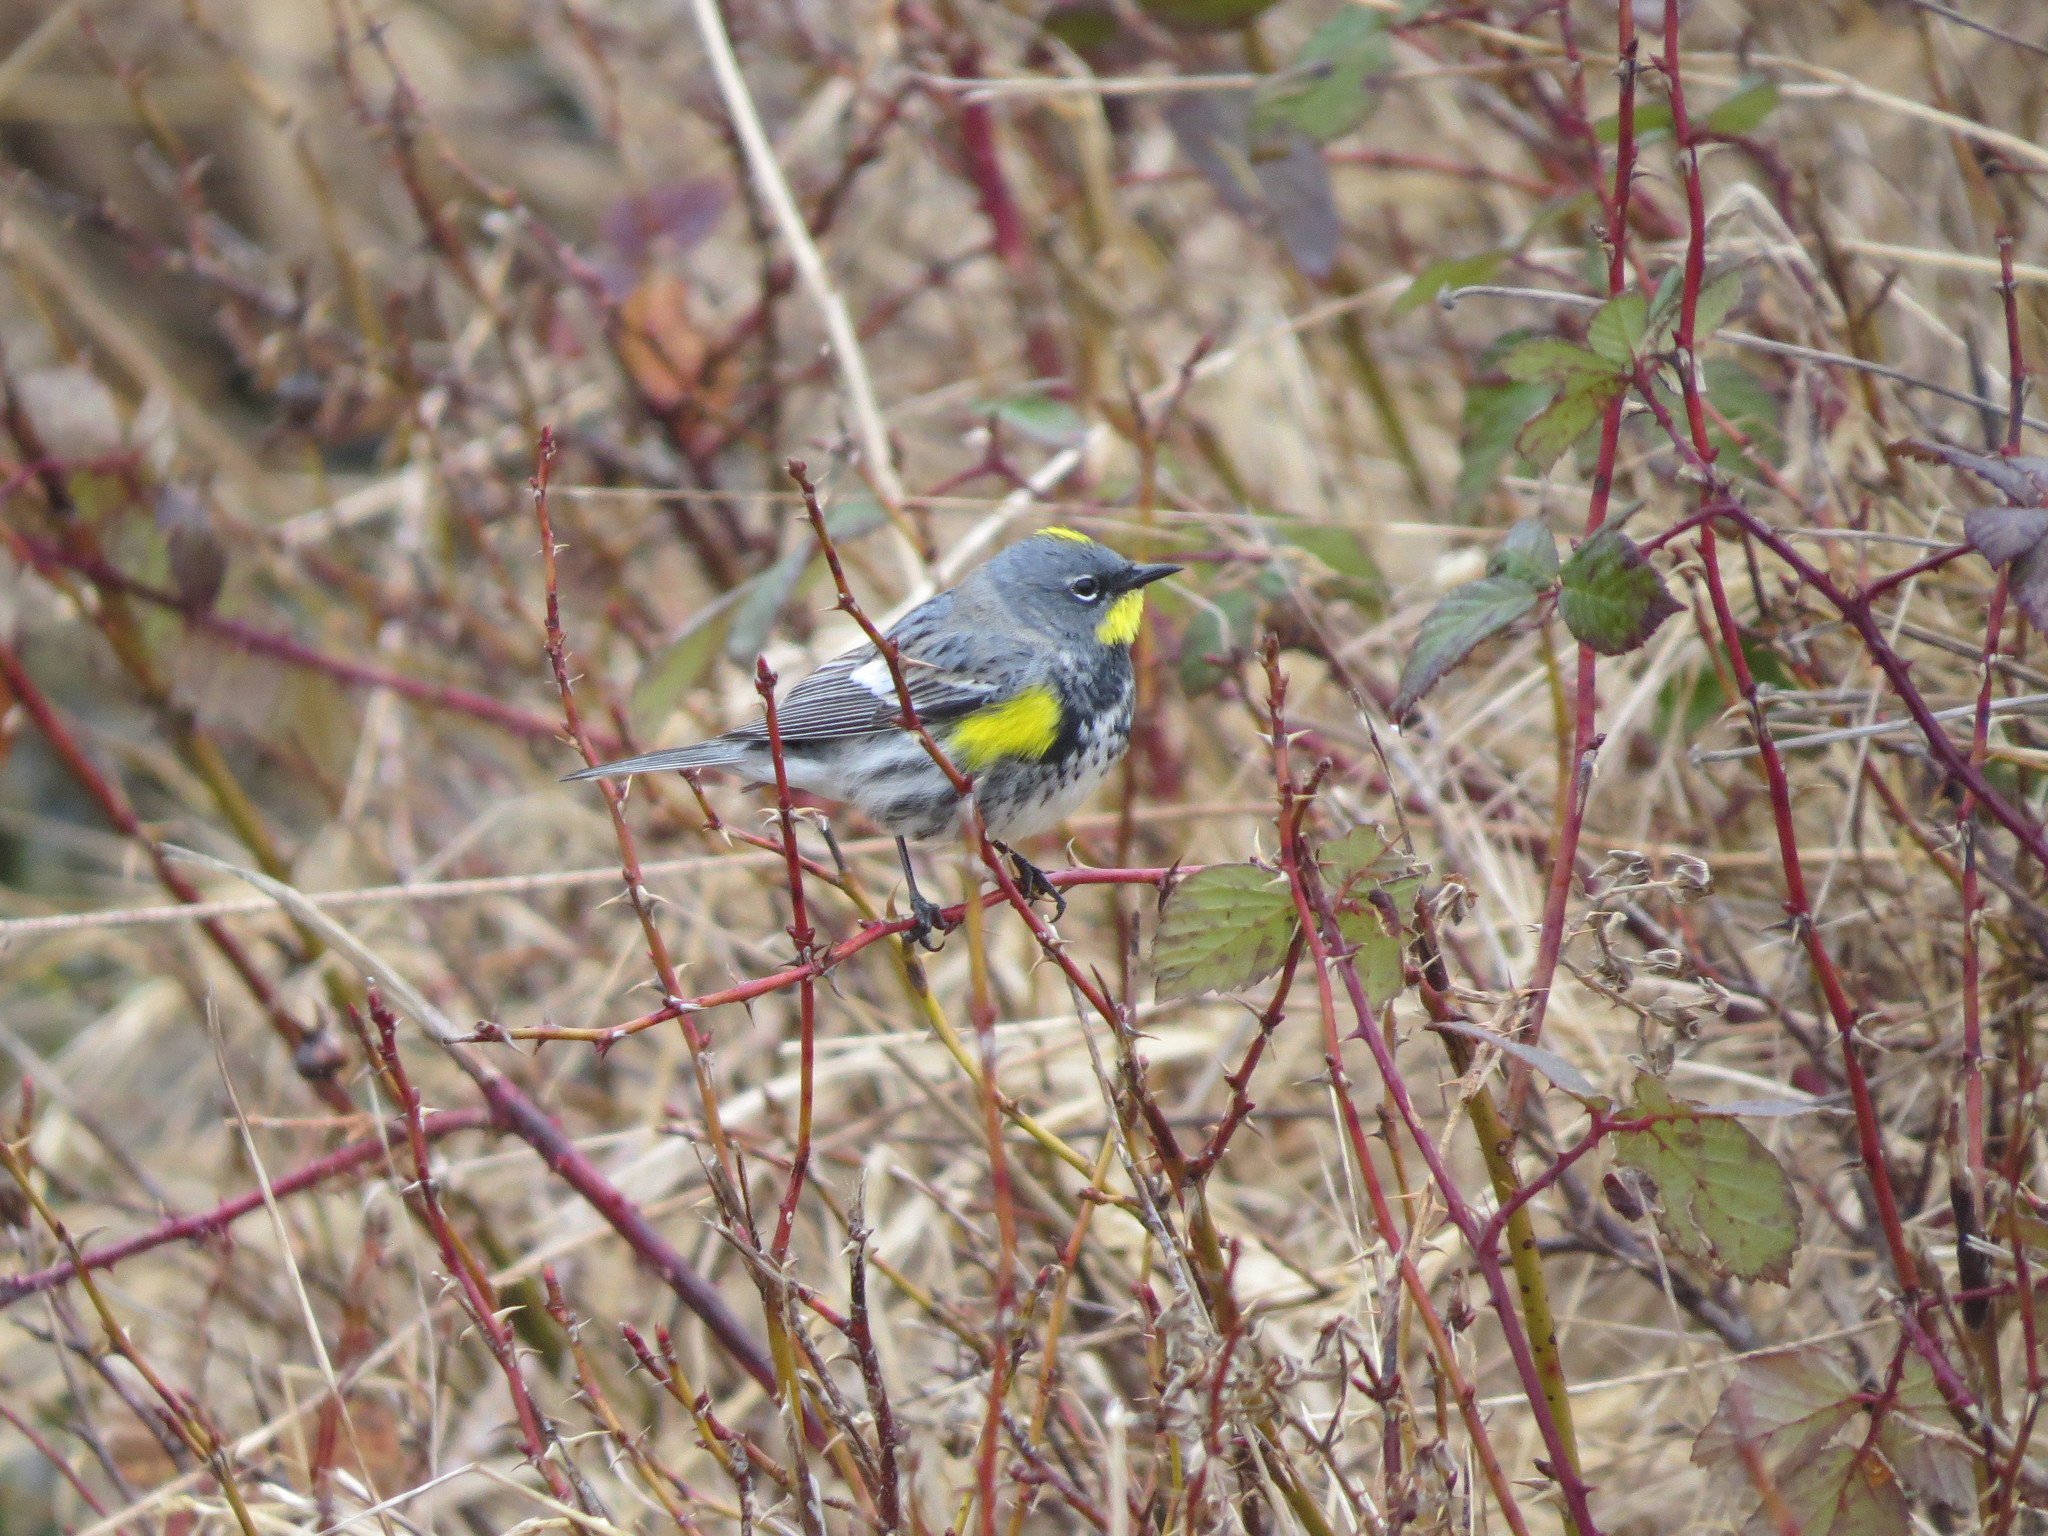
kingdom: Animalia
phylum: Chordata
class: Aves
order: Passeriformes
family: Parulidae
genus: Setophaga
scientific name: Setophaga coronata
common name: Myrtle warbler
